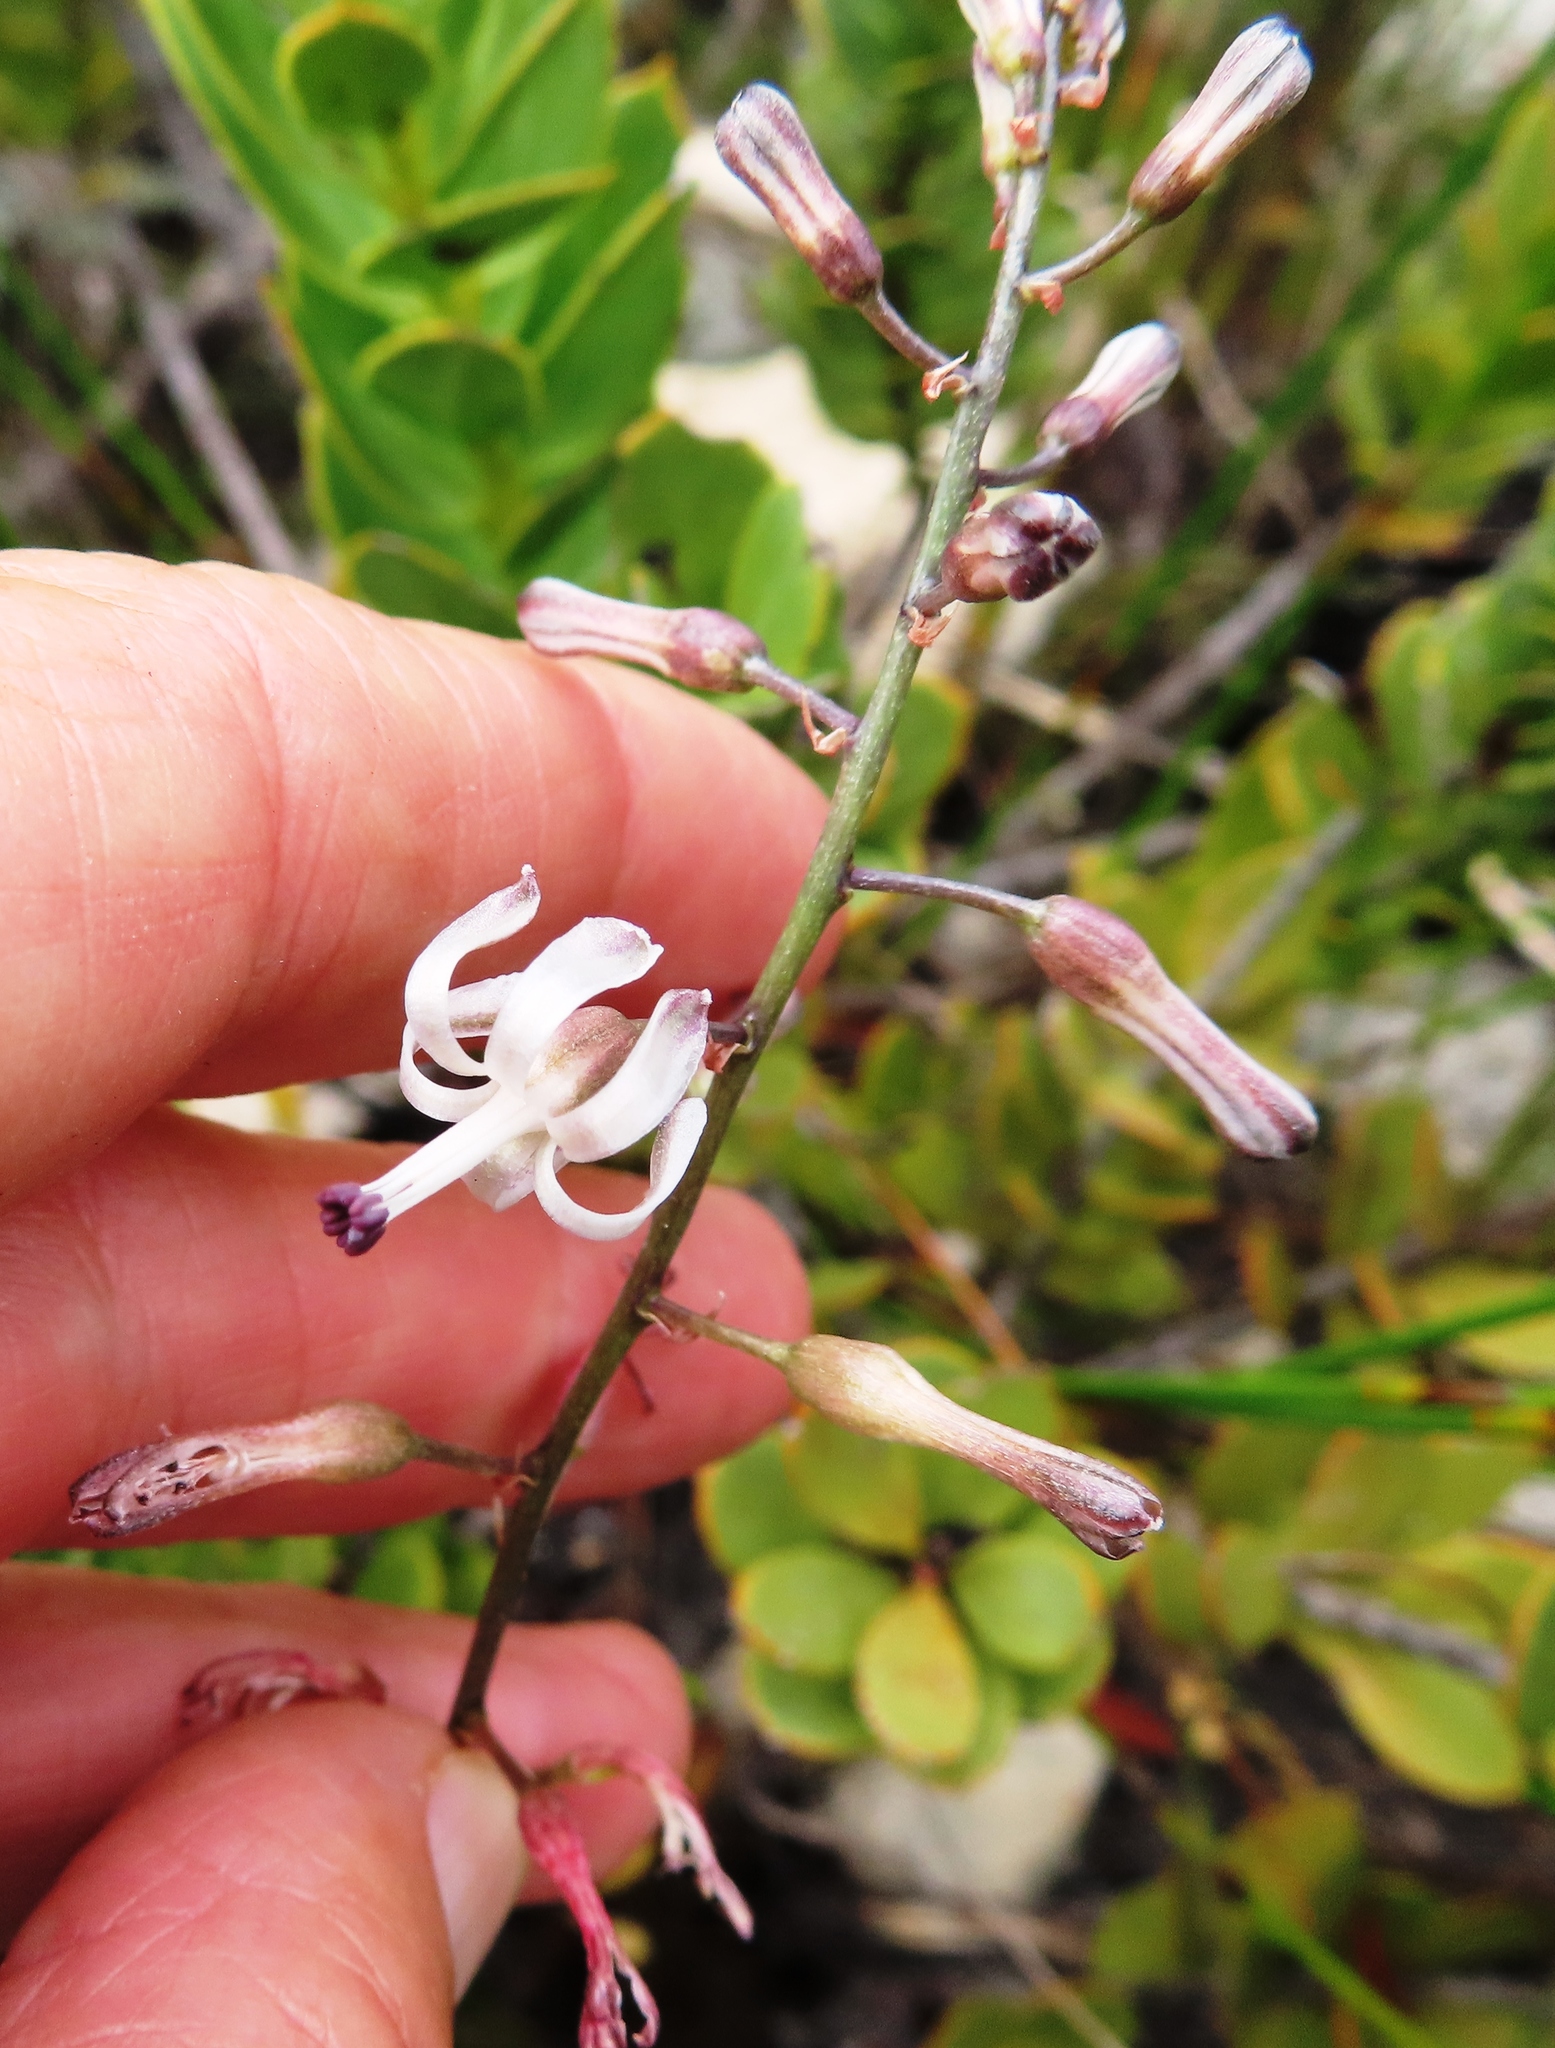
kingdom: Plantae
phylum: Tracheophyta
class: Liliopsida
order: Asparagales
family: Asparagaceae
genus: Drimia
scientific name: Drimia media
